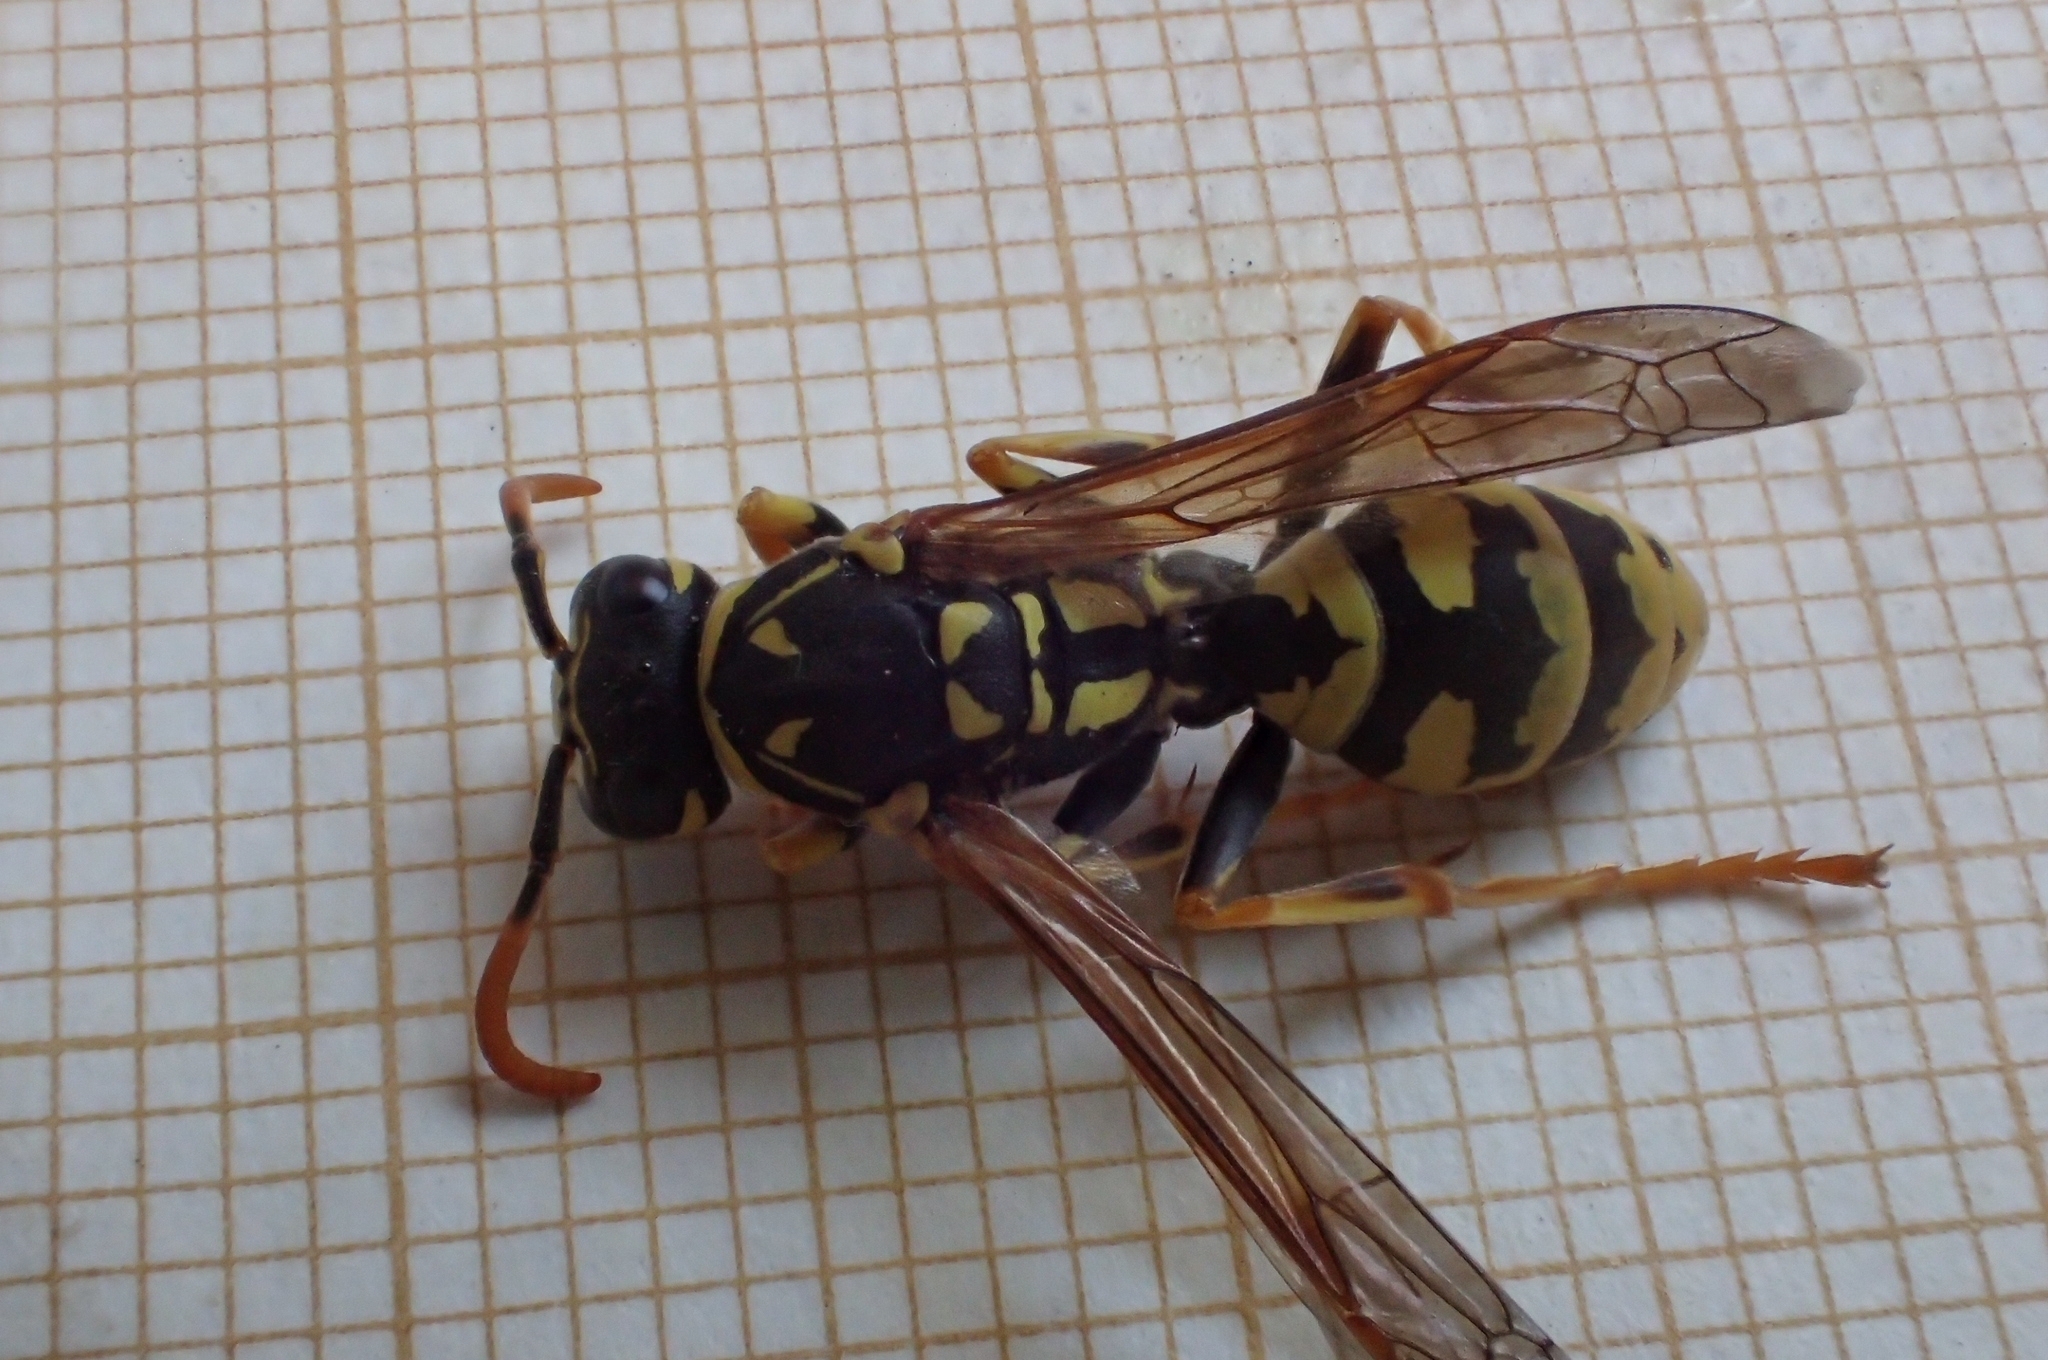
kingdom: Animalia
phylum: Arthropoda
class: Insecta
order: Hymenoptera
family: Eumenidae
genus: Polistes
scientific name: Polistes dominula
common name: Paper wasp
